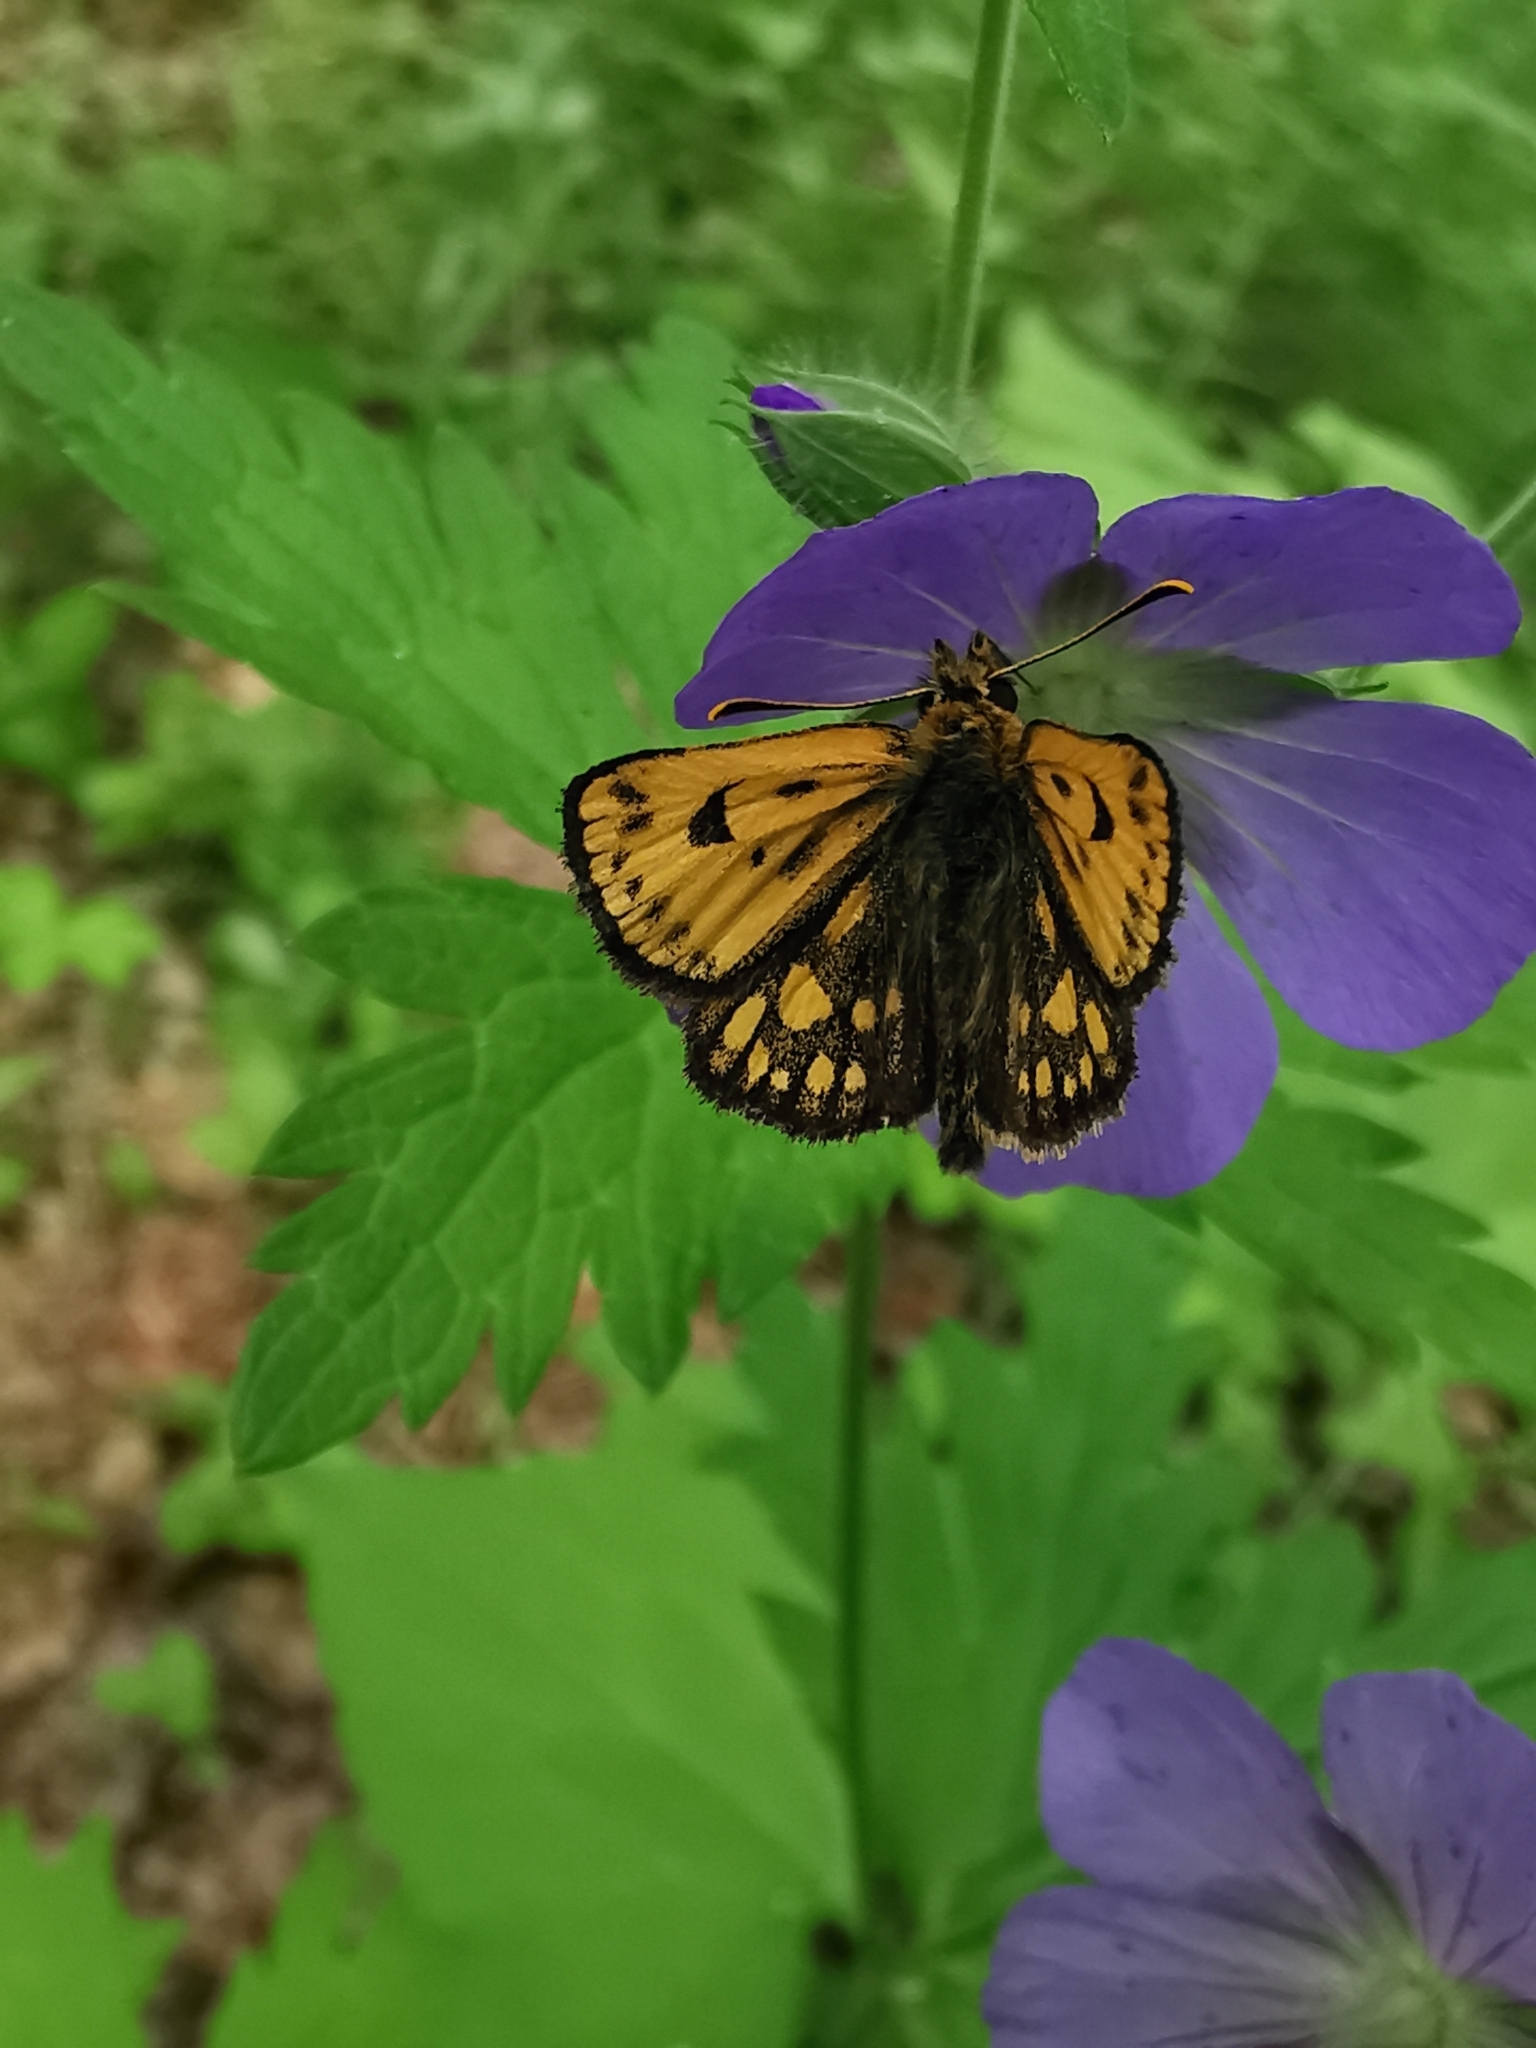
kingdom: Animalia
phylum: Arthropoda
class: Insecta
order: Lepidoptera
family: Hesperiidae
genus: Carterocephalus
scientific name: Carterocephalus silvicola
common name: Northern chequered skipper
